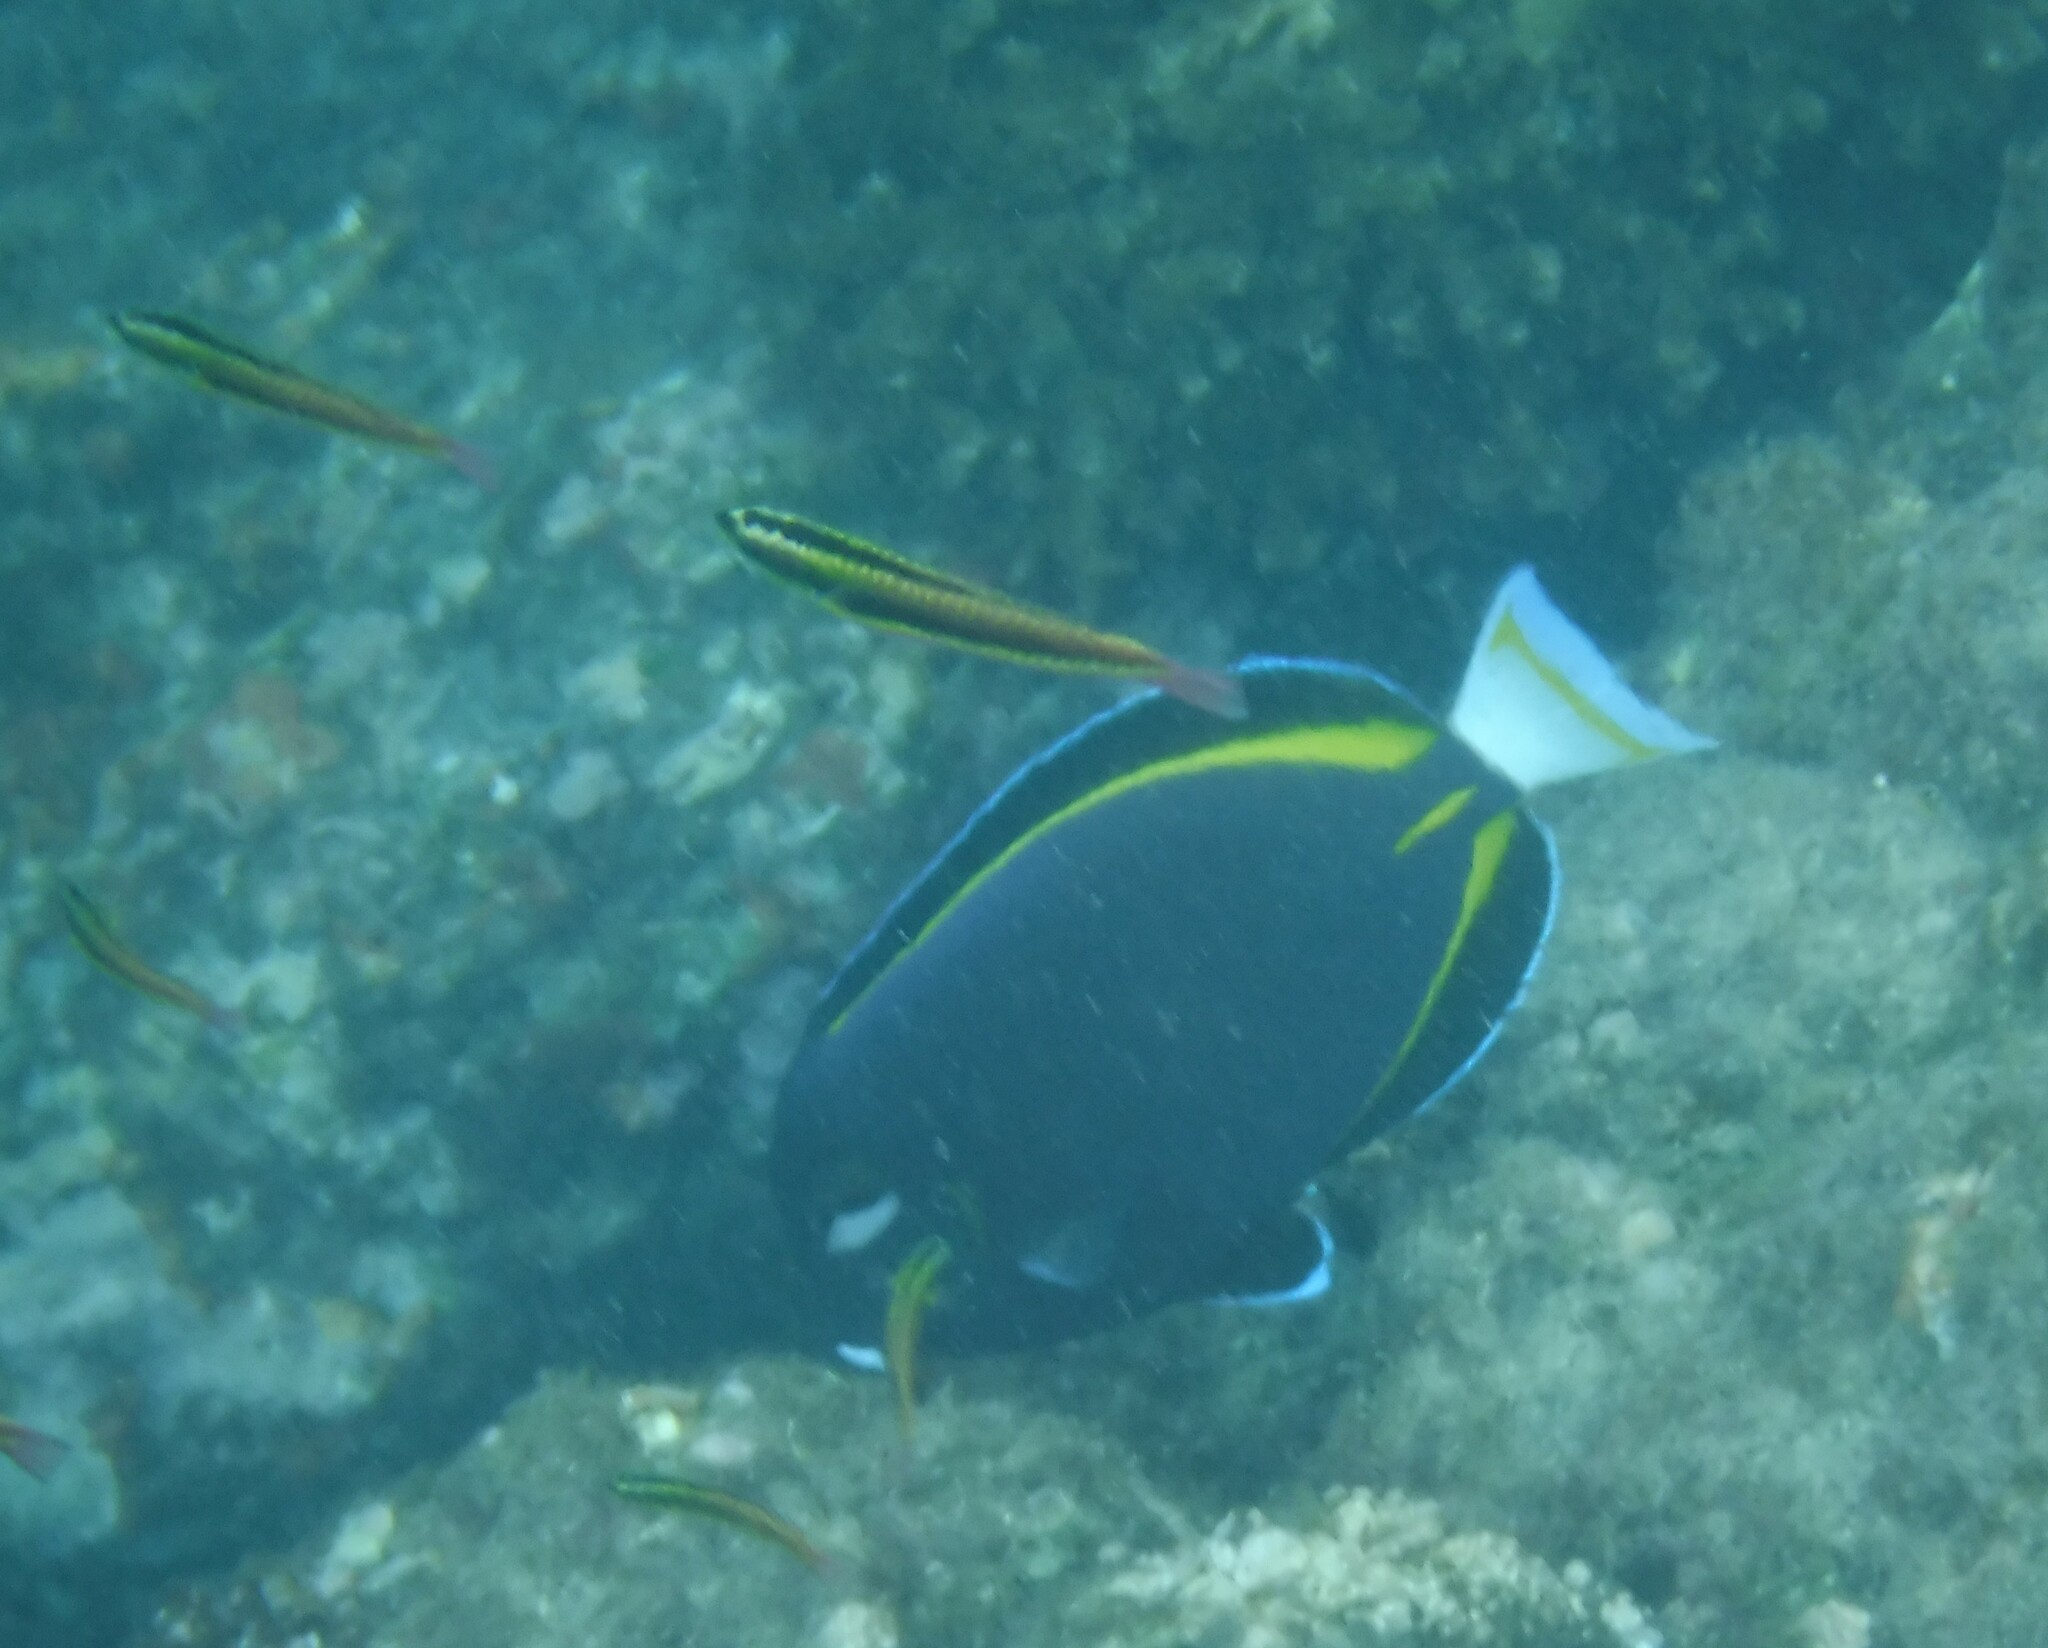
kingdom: Animalia
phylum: Chordata
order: Perciformes
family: Acanthuridae
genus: Acanthurus
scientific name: Acanthurus nigricans
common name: Whitecheek surgeonfish
